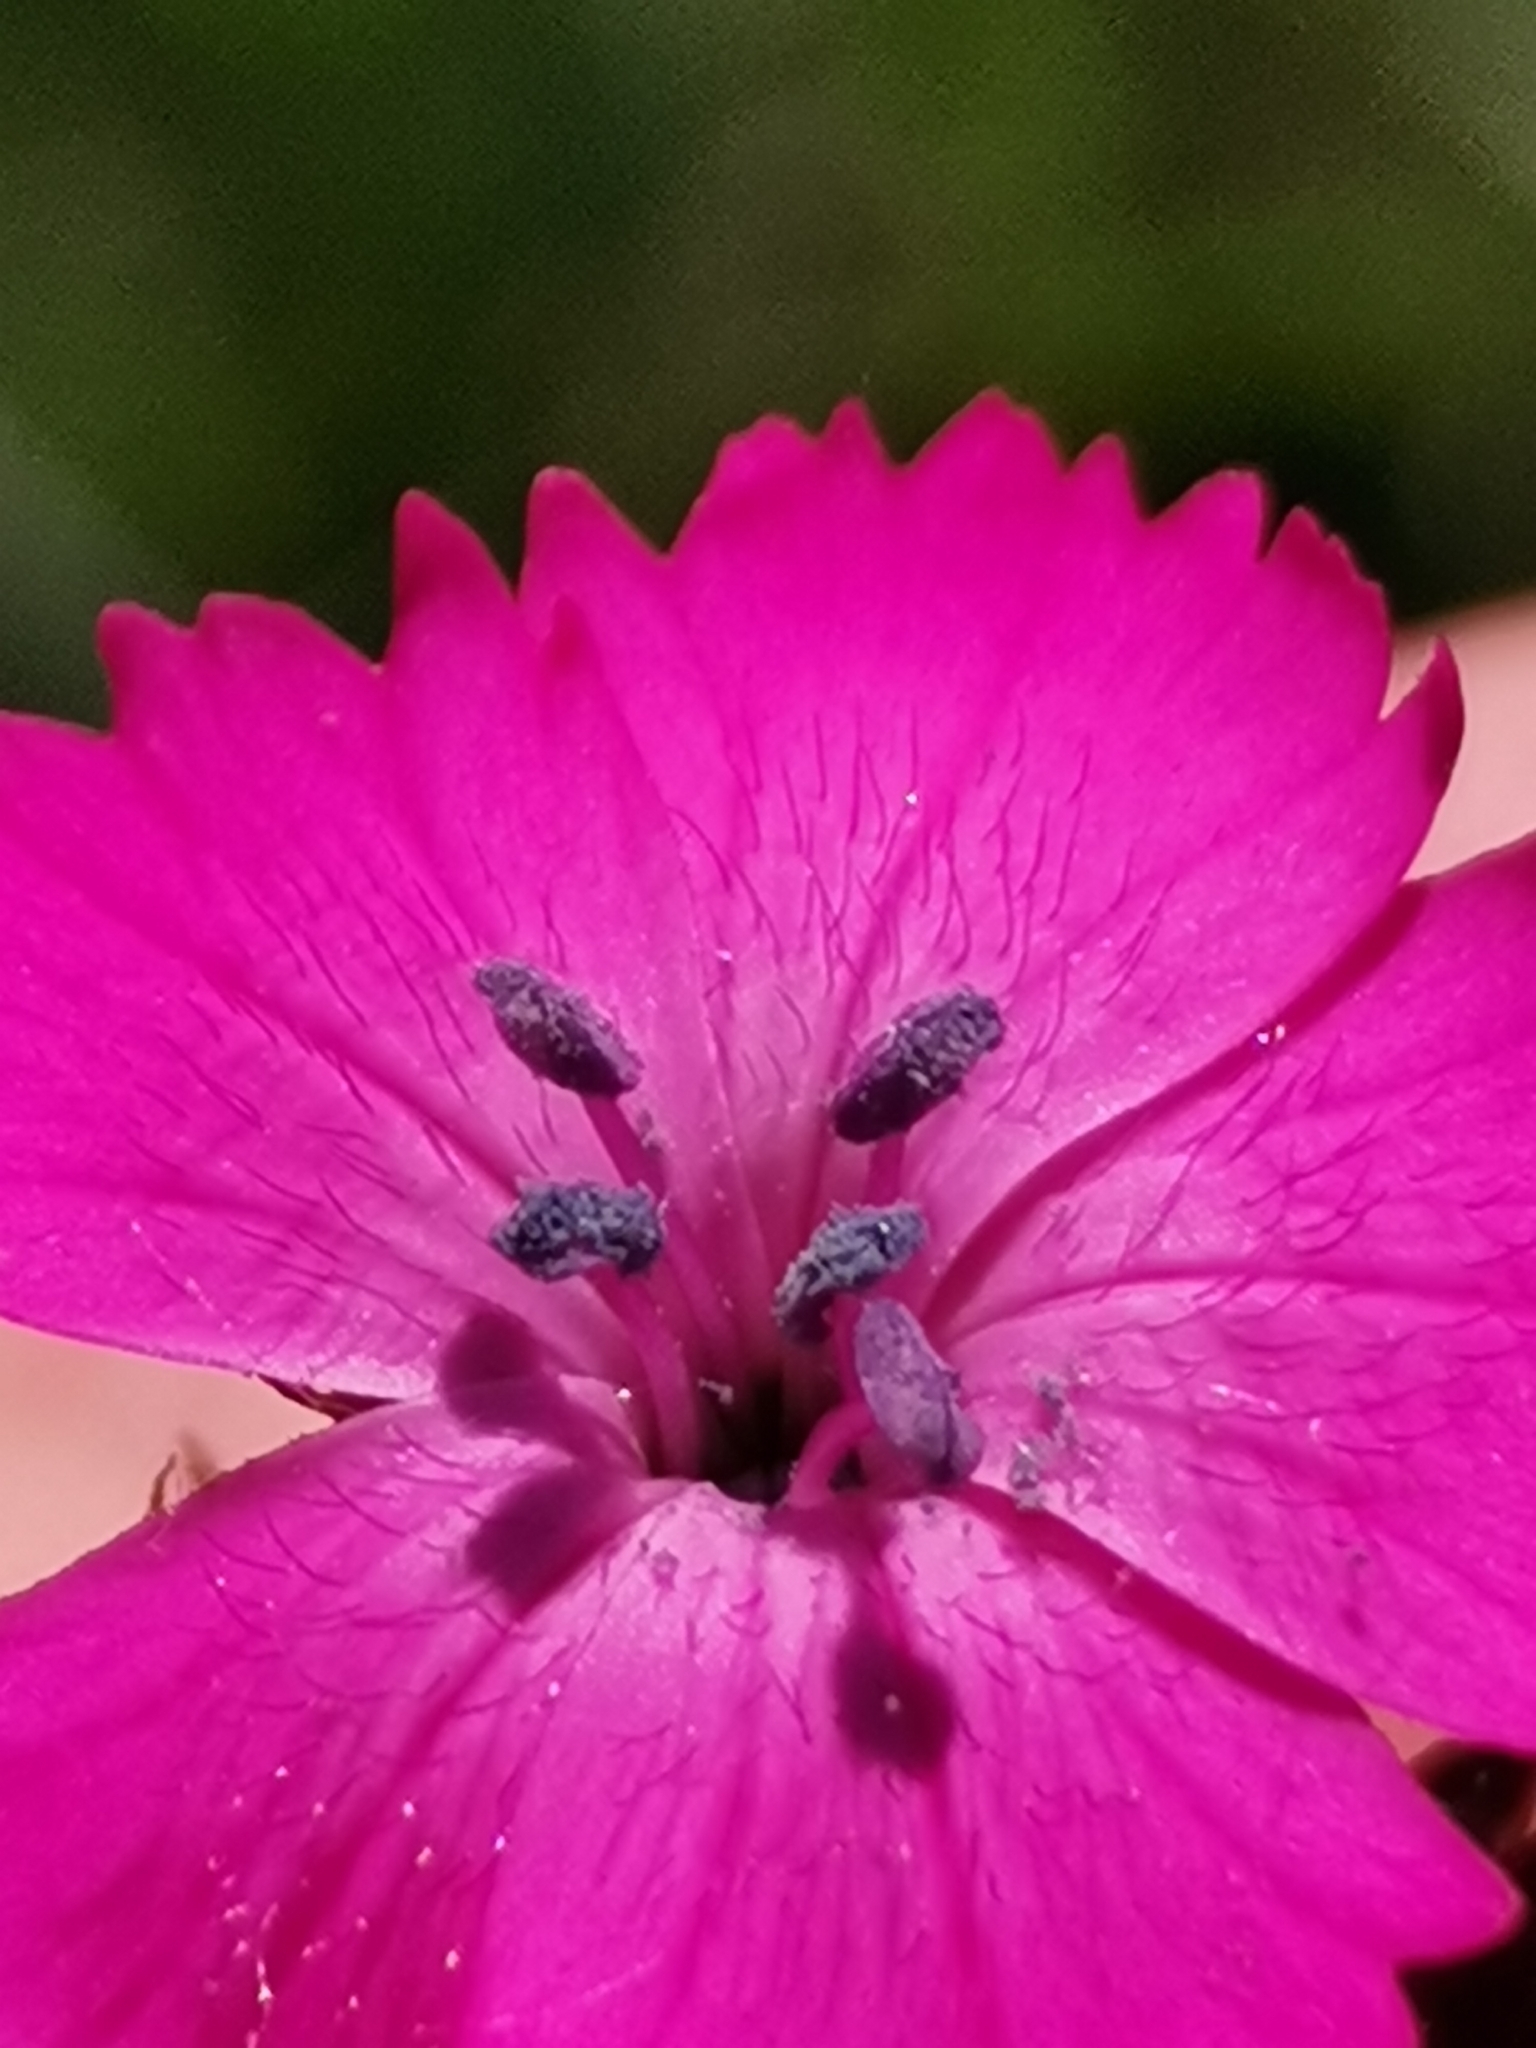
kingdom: Plantae
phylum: Tracheophyta
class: Magnoliopsida
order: Caryophyllales
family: Caryophyllaceae
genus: Dianthus
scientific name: Dianthus giganteus
